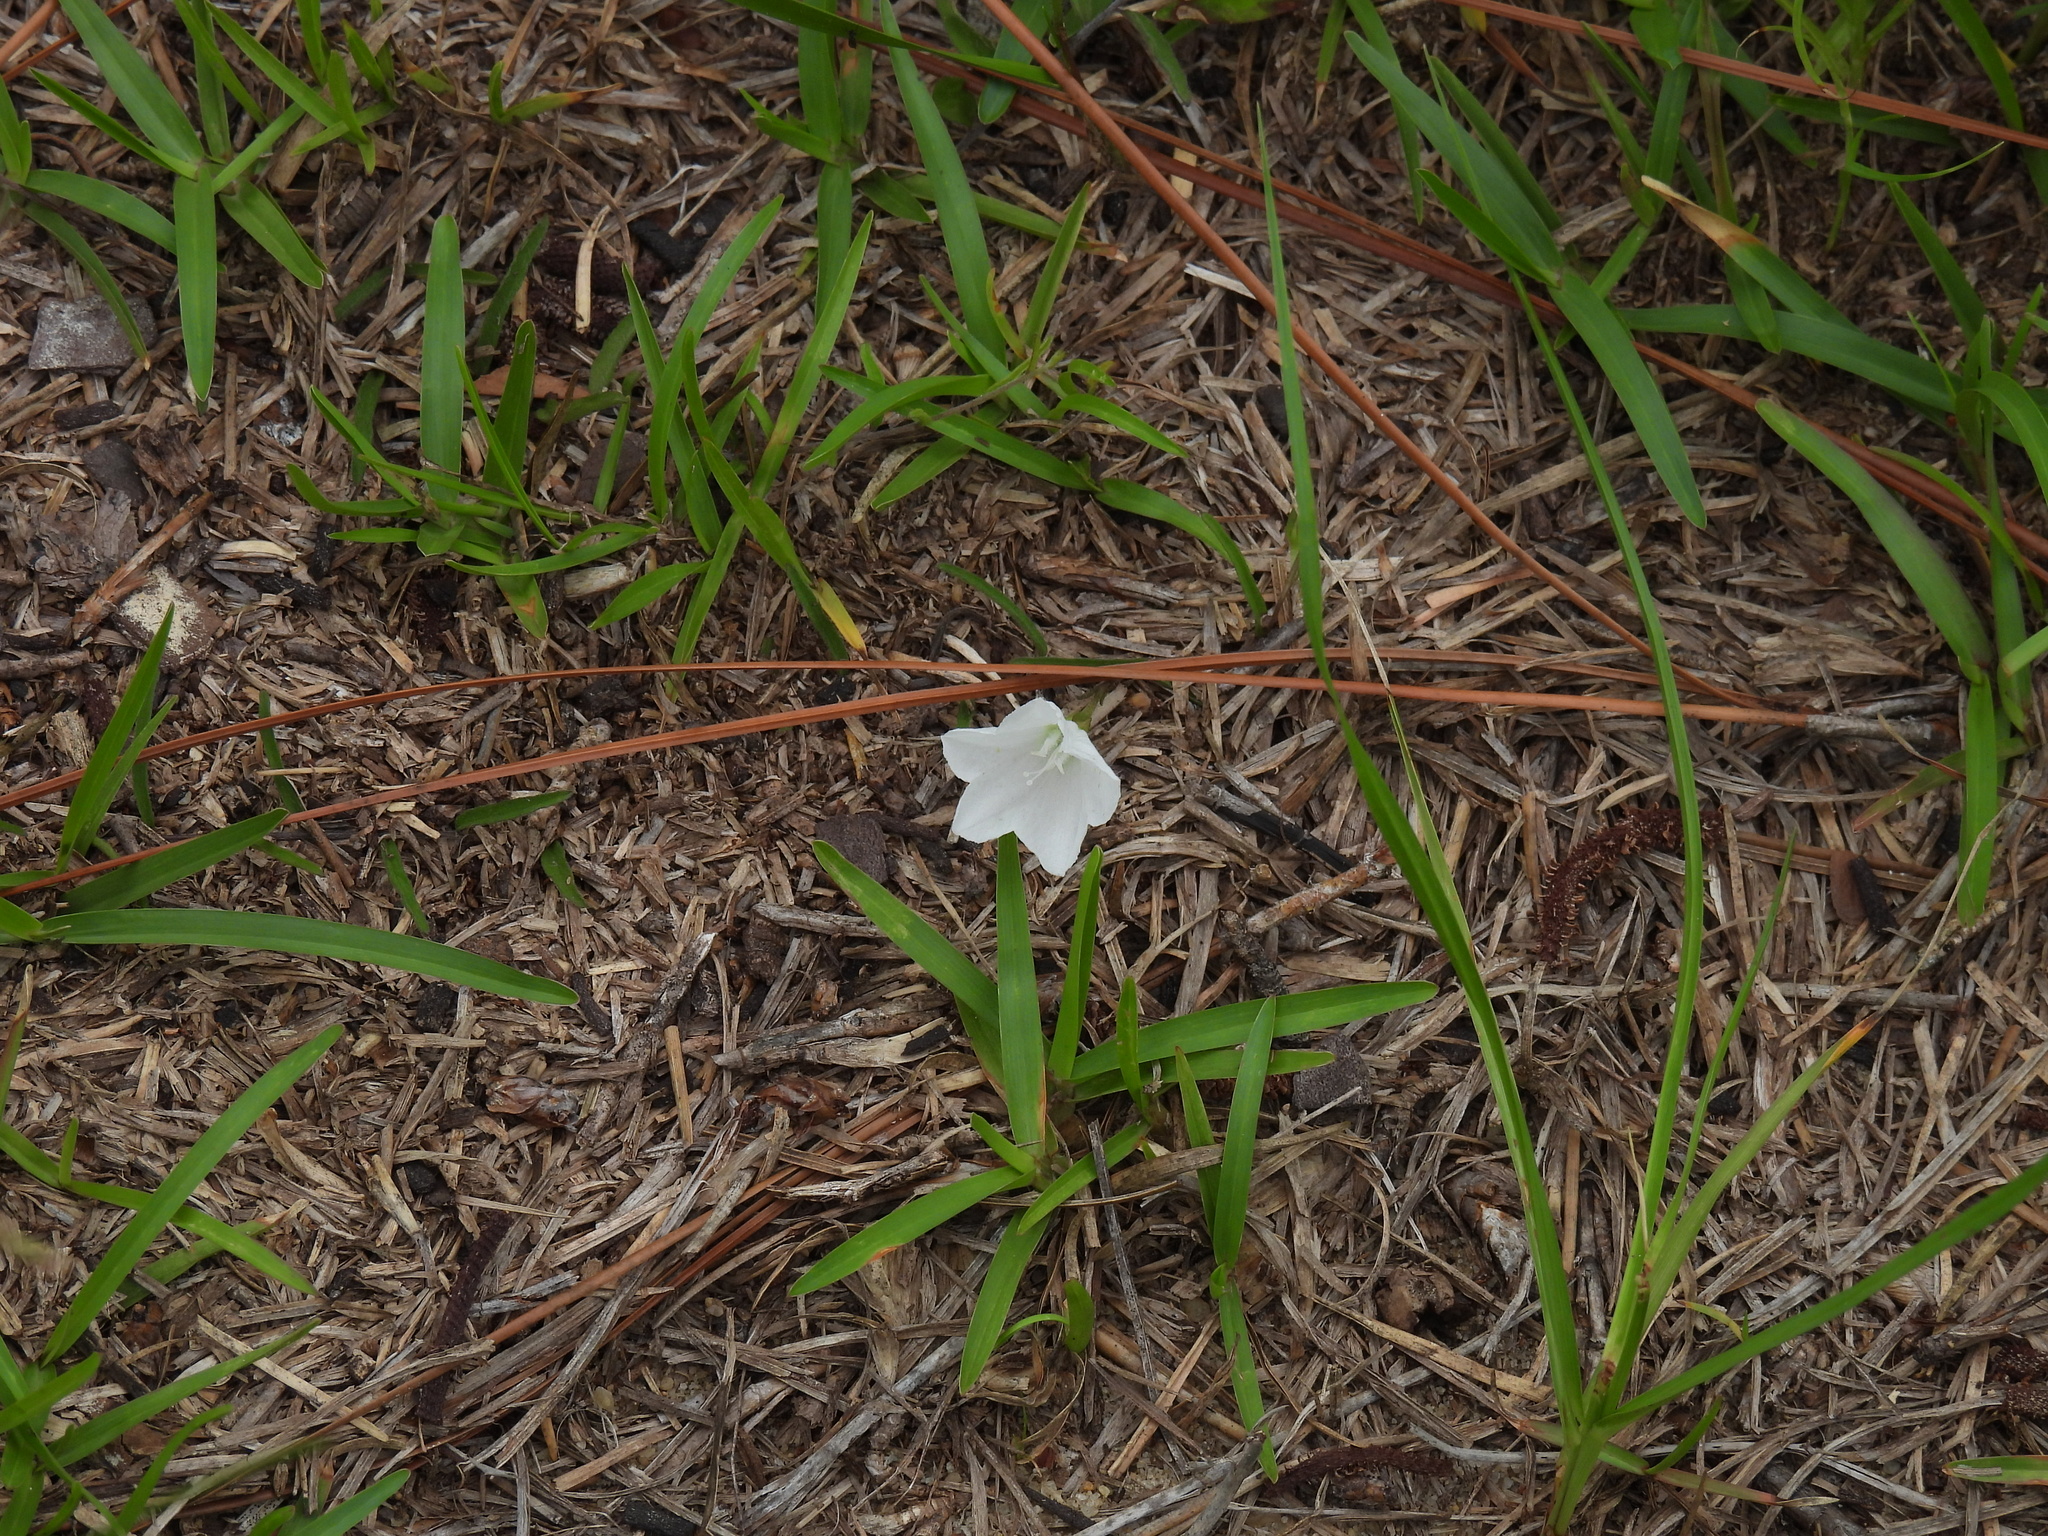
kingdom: Plantae
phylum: Tracheophyta
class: Magnoliopsida
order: Solanales
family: Convolvulaceae
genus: Stylisma
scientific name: Stylisma patens
